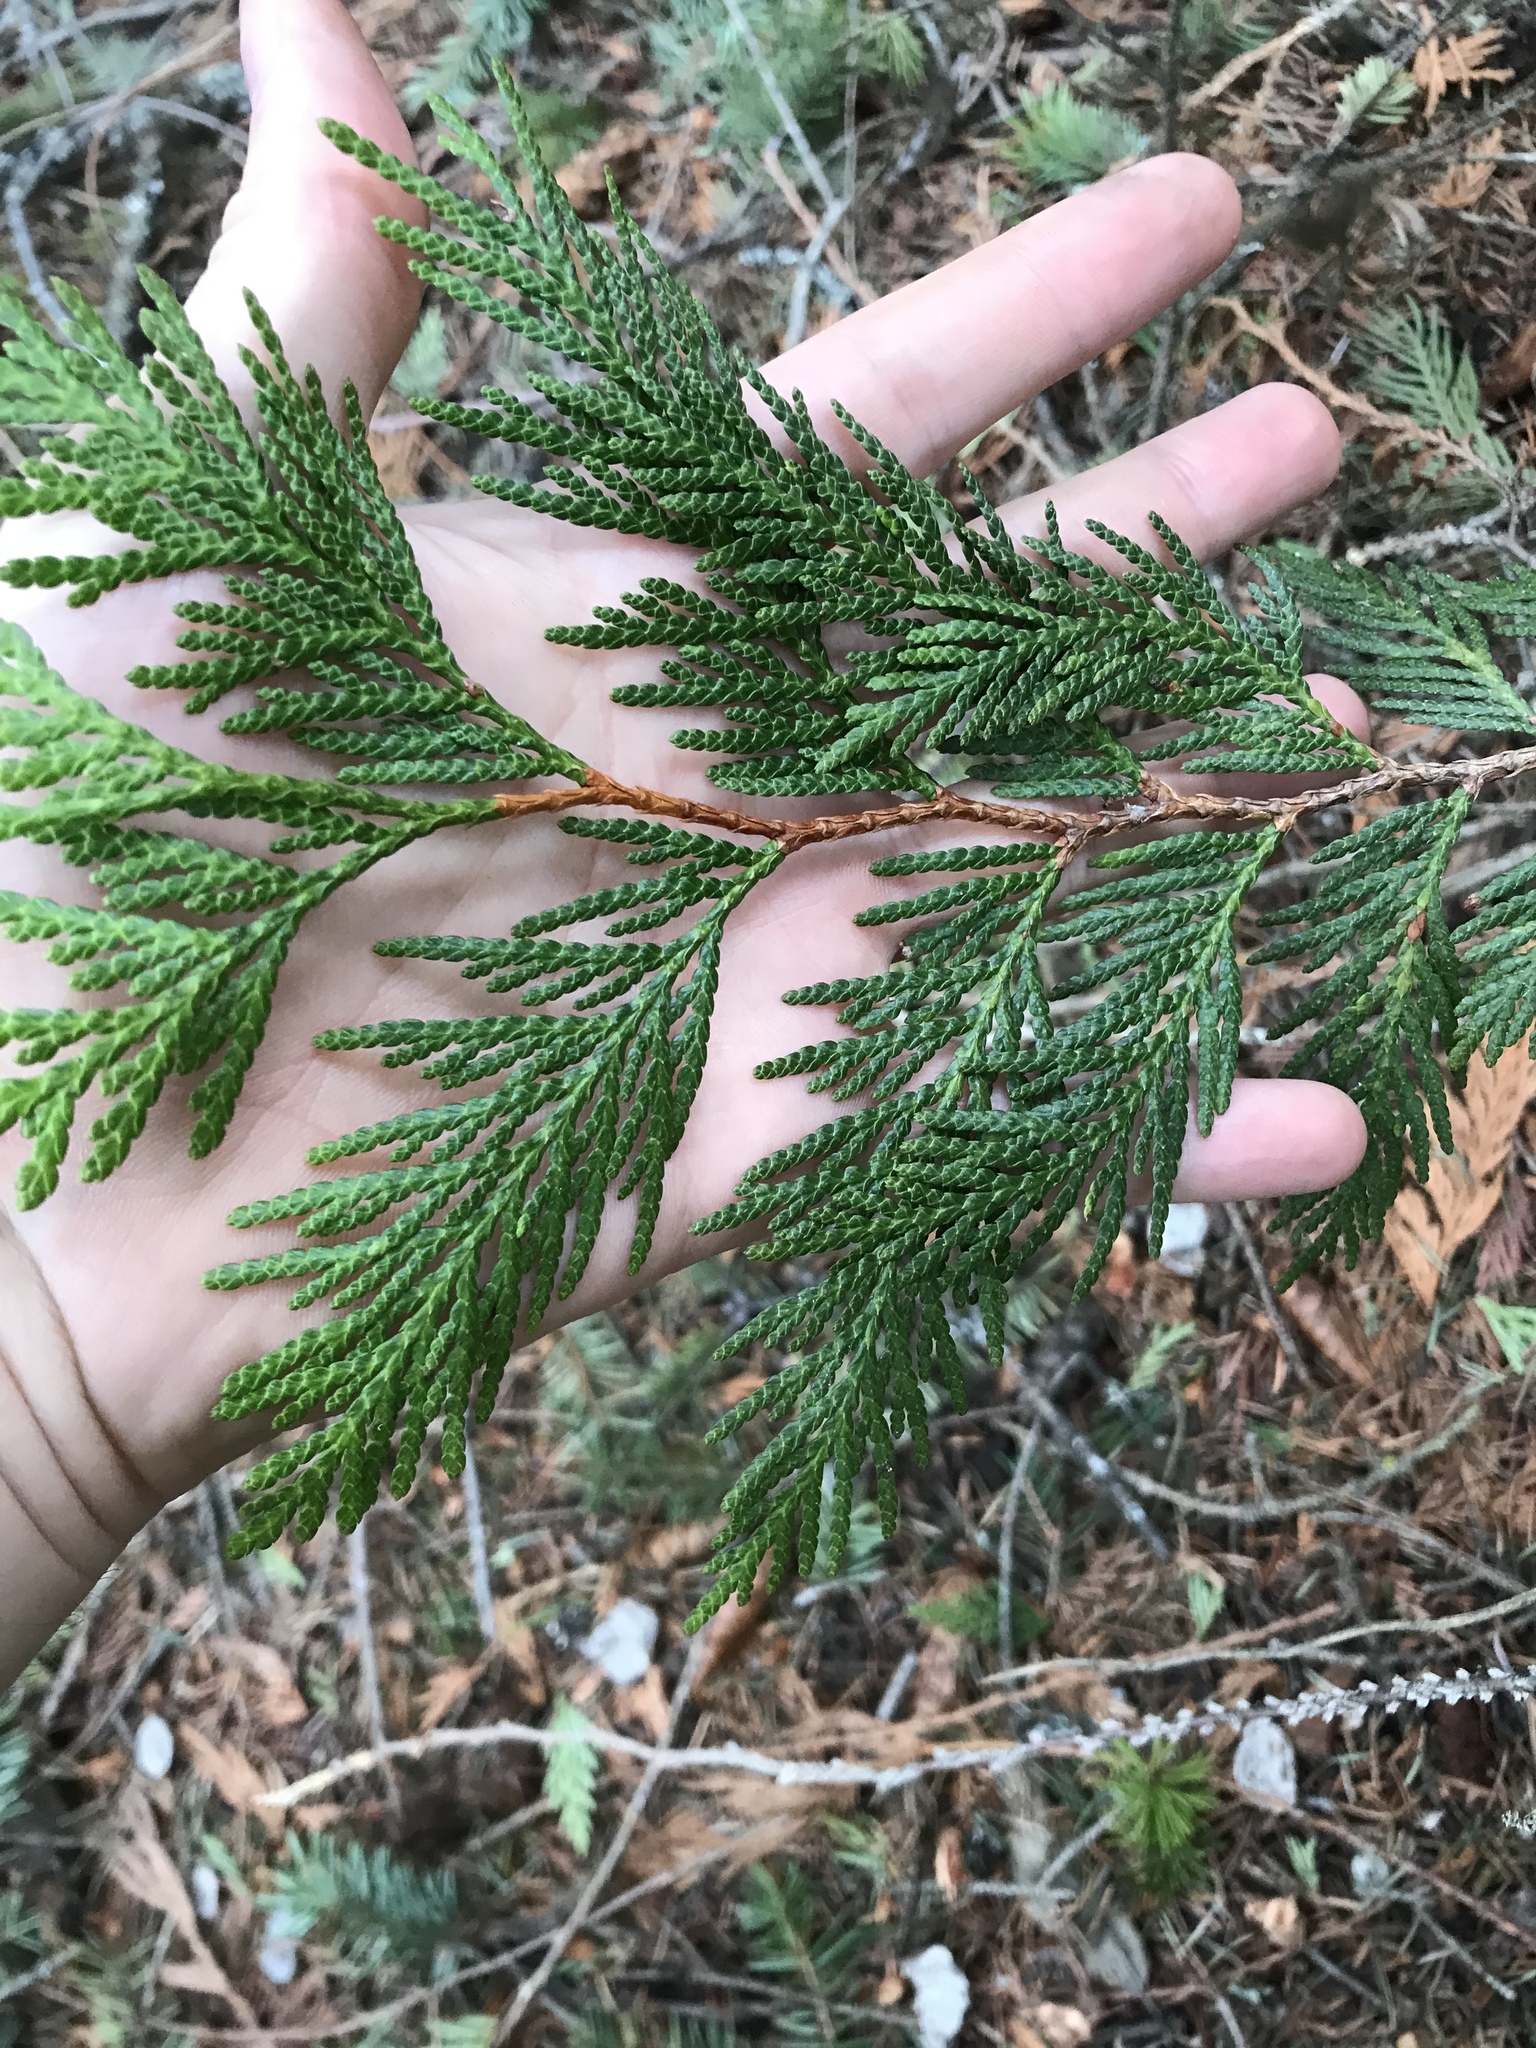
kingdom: Plantae
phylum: Tracheophyta
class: Pinopsida
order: Pinales
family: Cupressaceae
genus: Thuja
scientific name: Thuja plicata
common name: Western red-cedar
